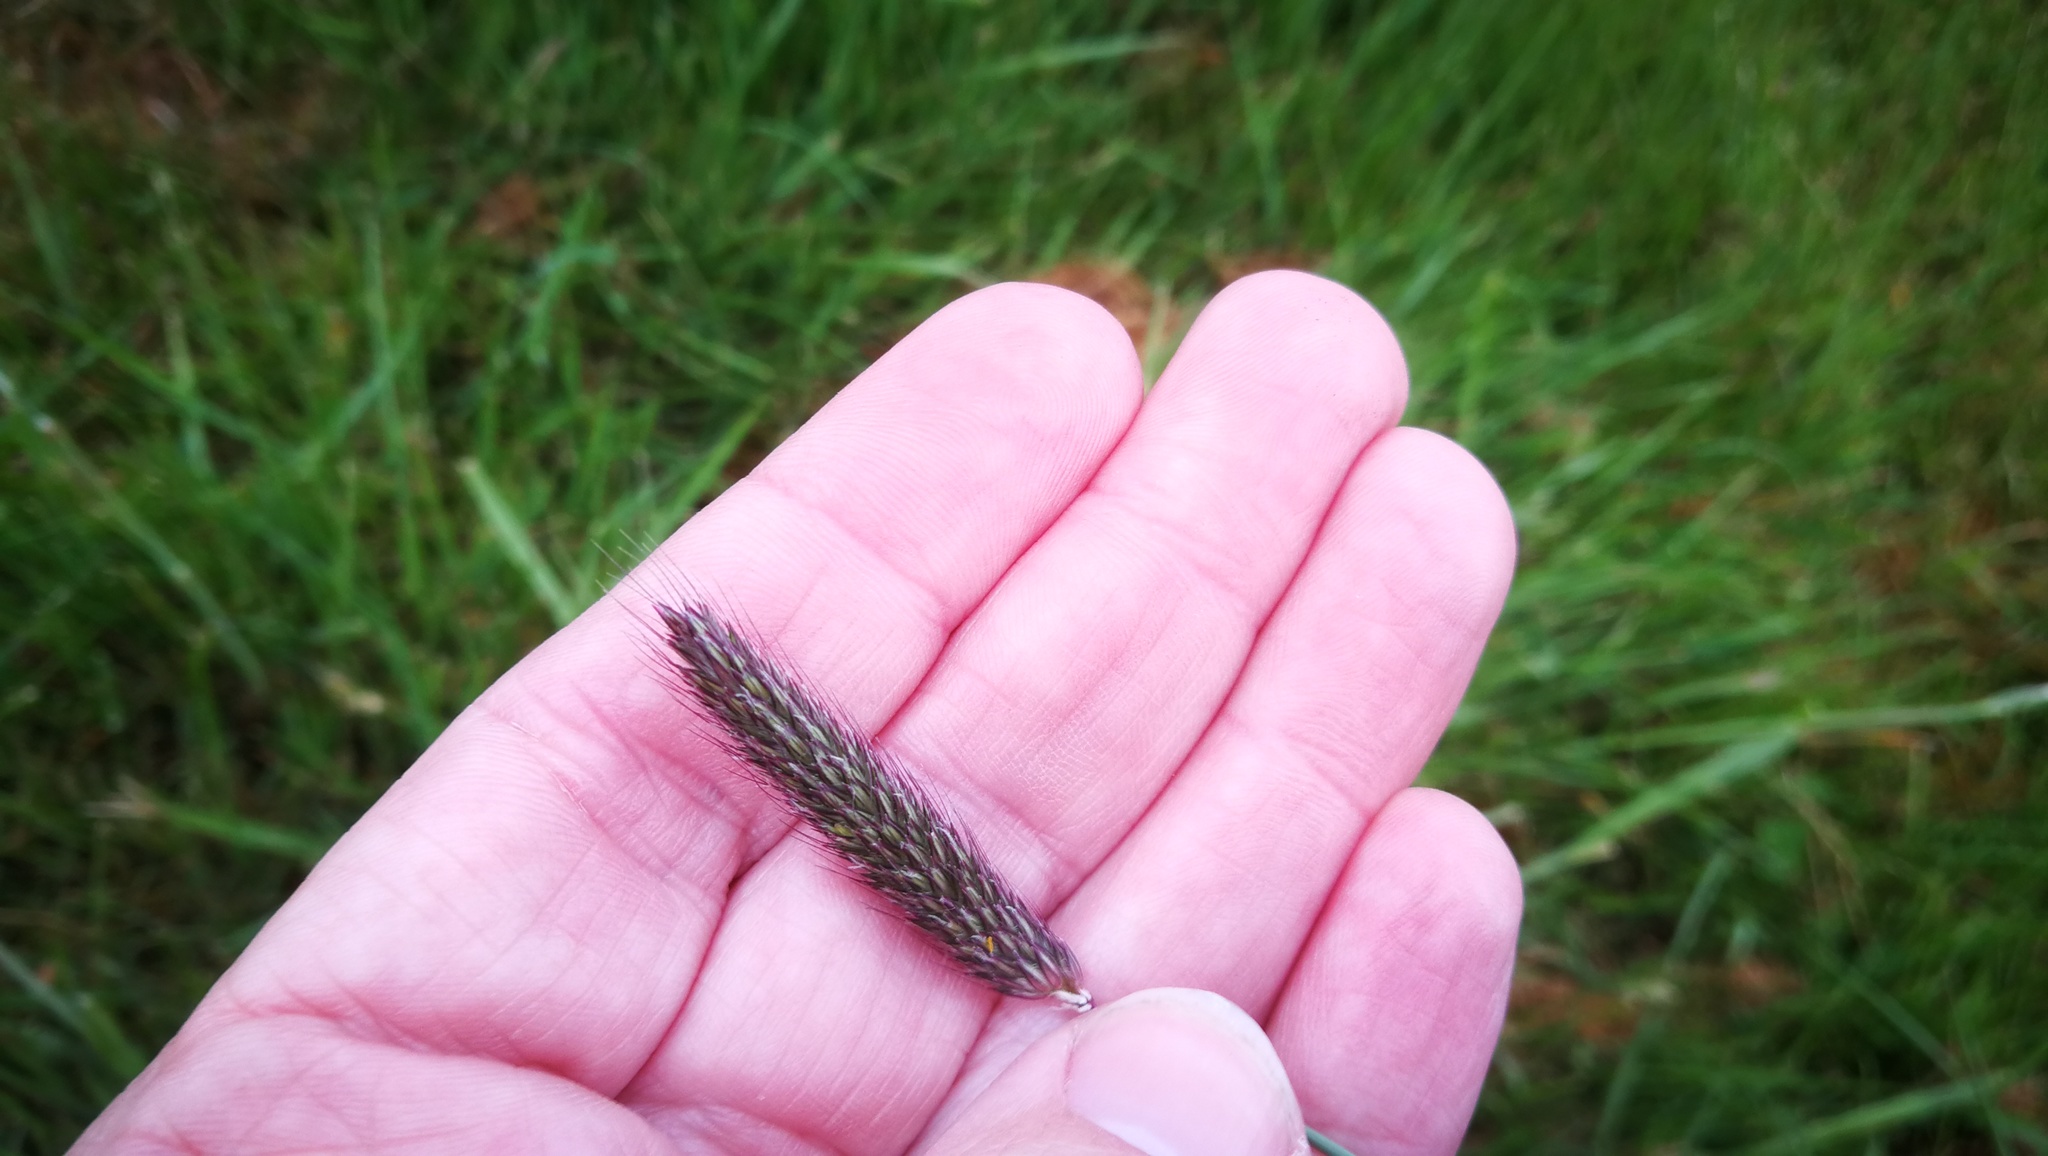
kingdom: Plantae
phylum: Tracheophyta
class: Liliopsida
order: Poales
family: Poaceae
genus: Alopecurus
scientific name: Alopecurus pratensis
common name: Meadow foxtail
